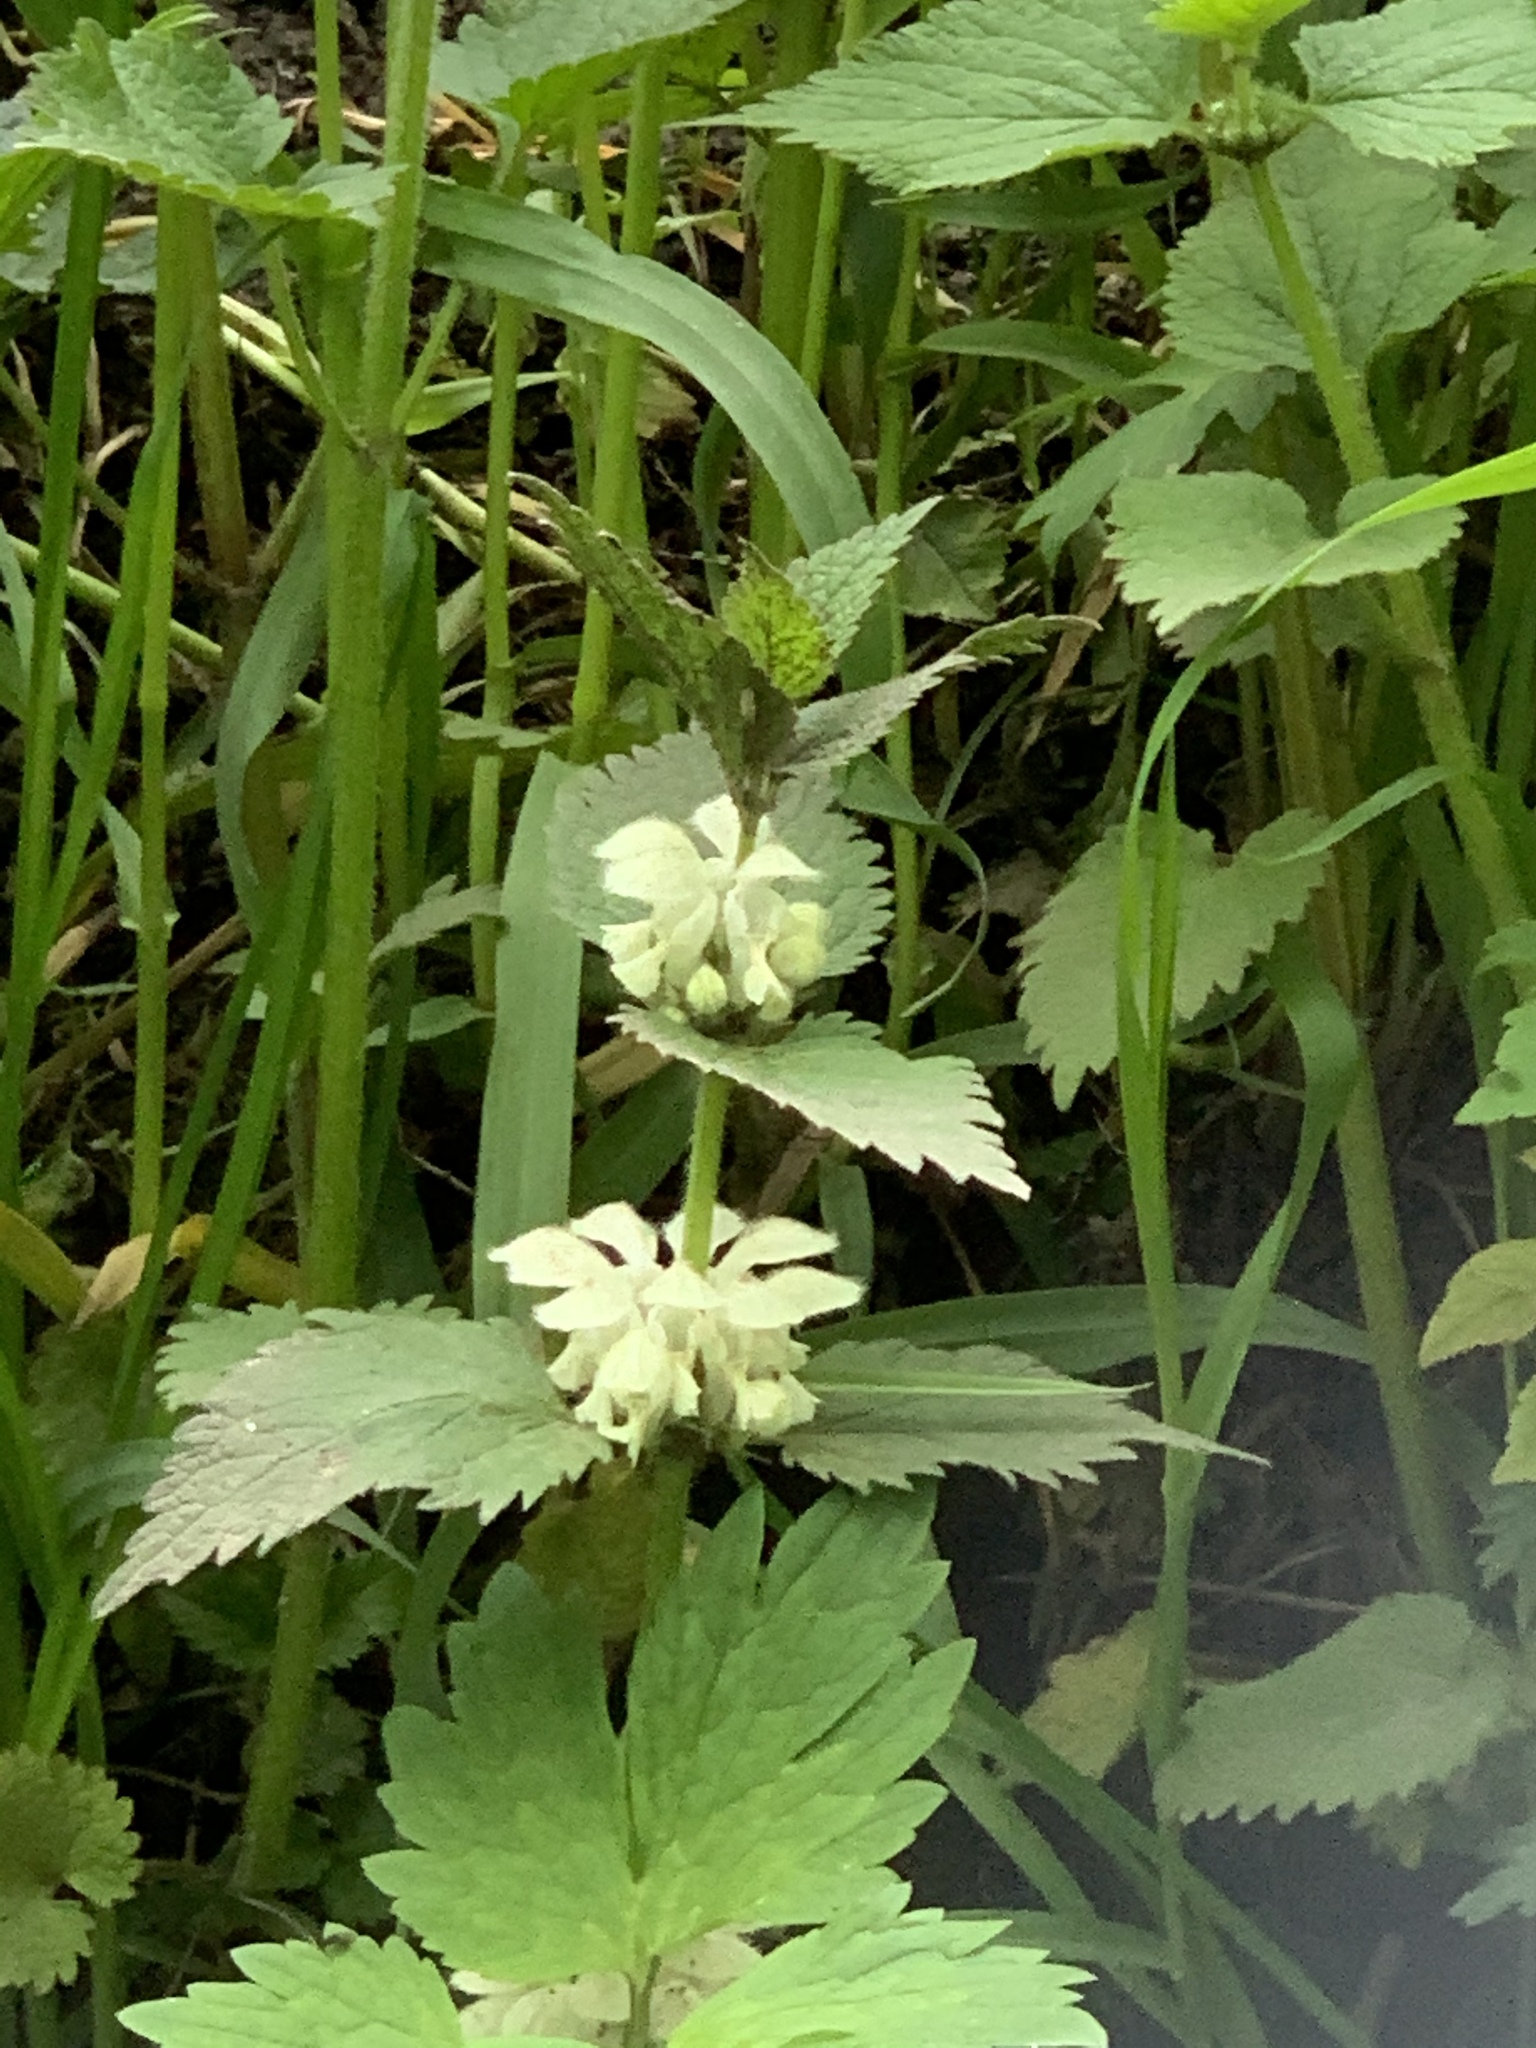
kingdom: Plantae
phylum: Tracheophyta
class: Magnoliopsida
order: Lamiales
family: Lamiaceae
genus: Lamium
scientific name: Lamium album
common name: White dead-nettle
